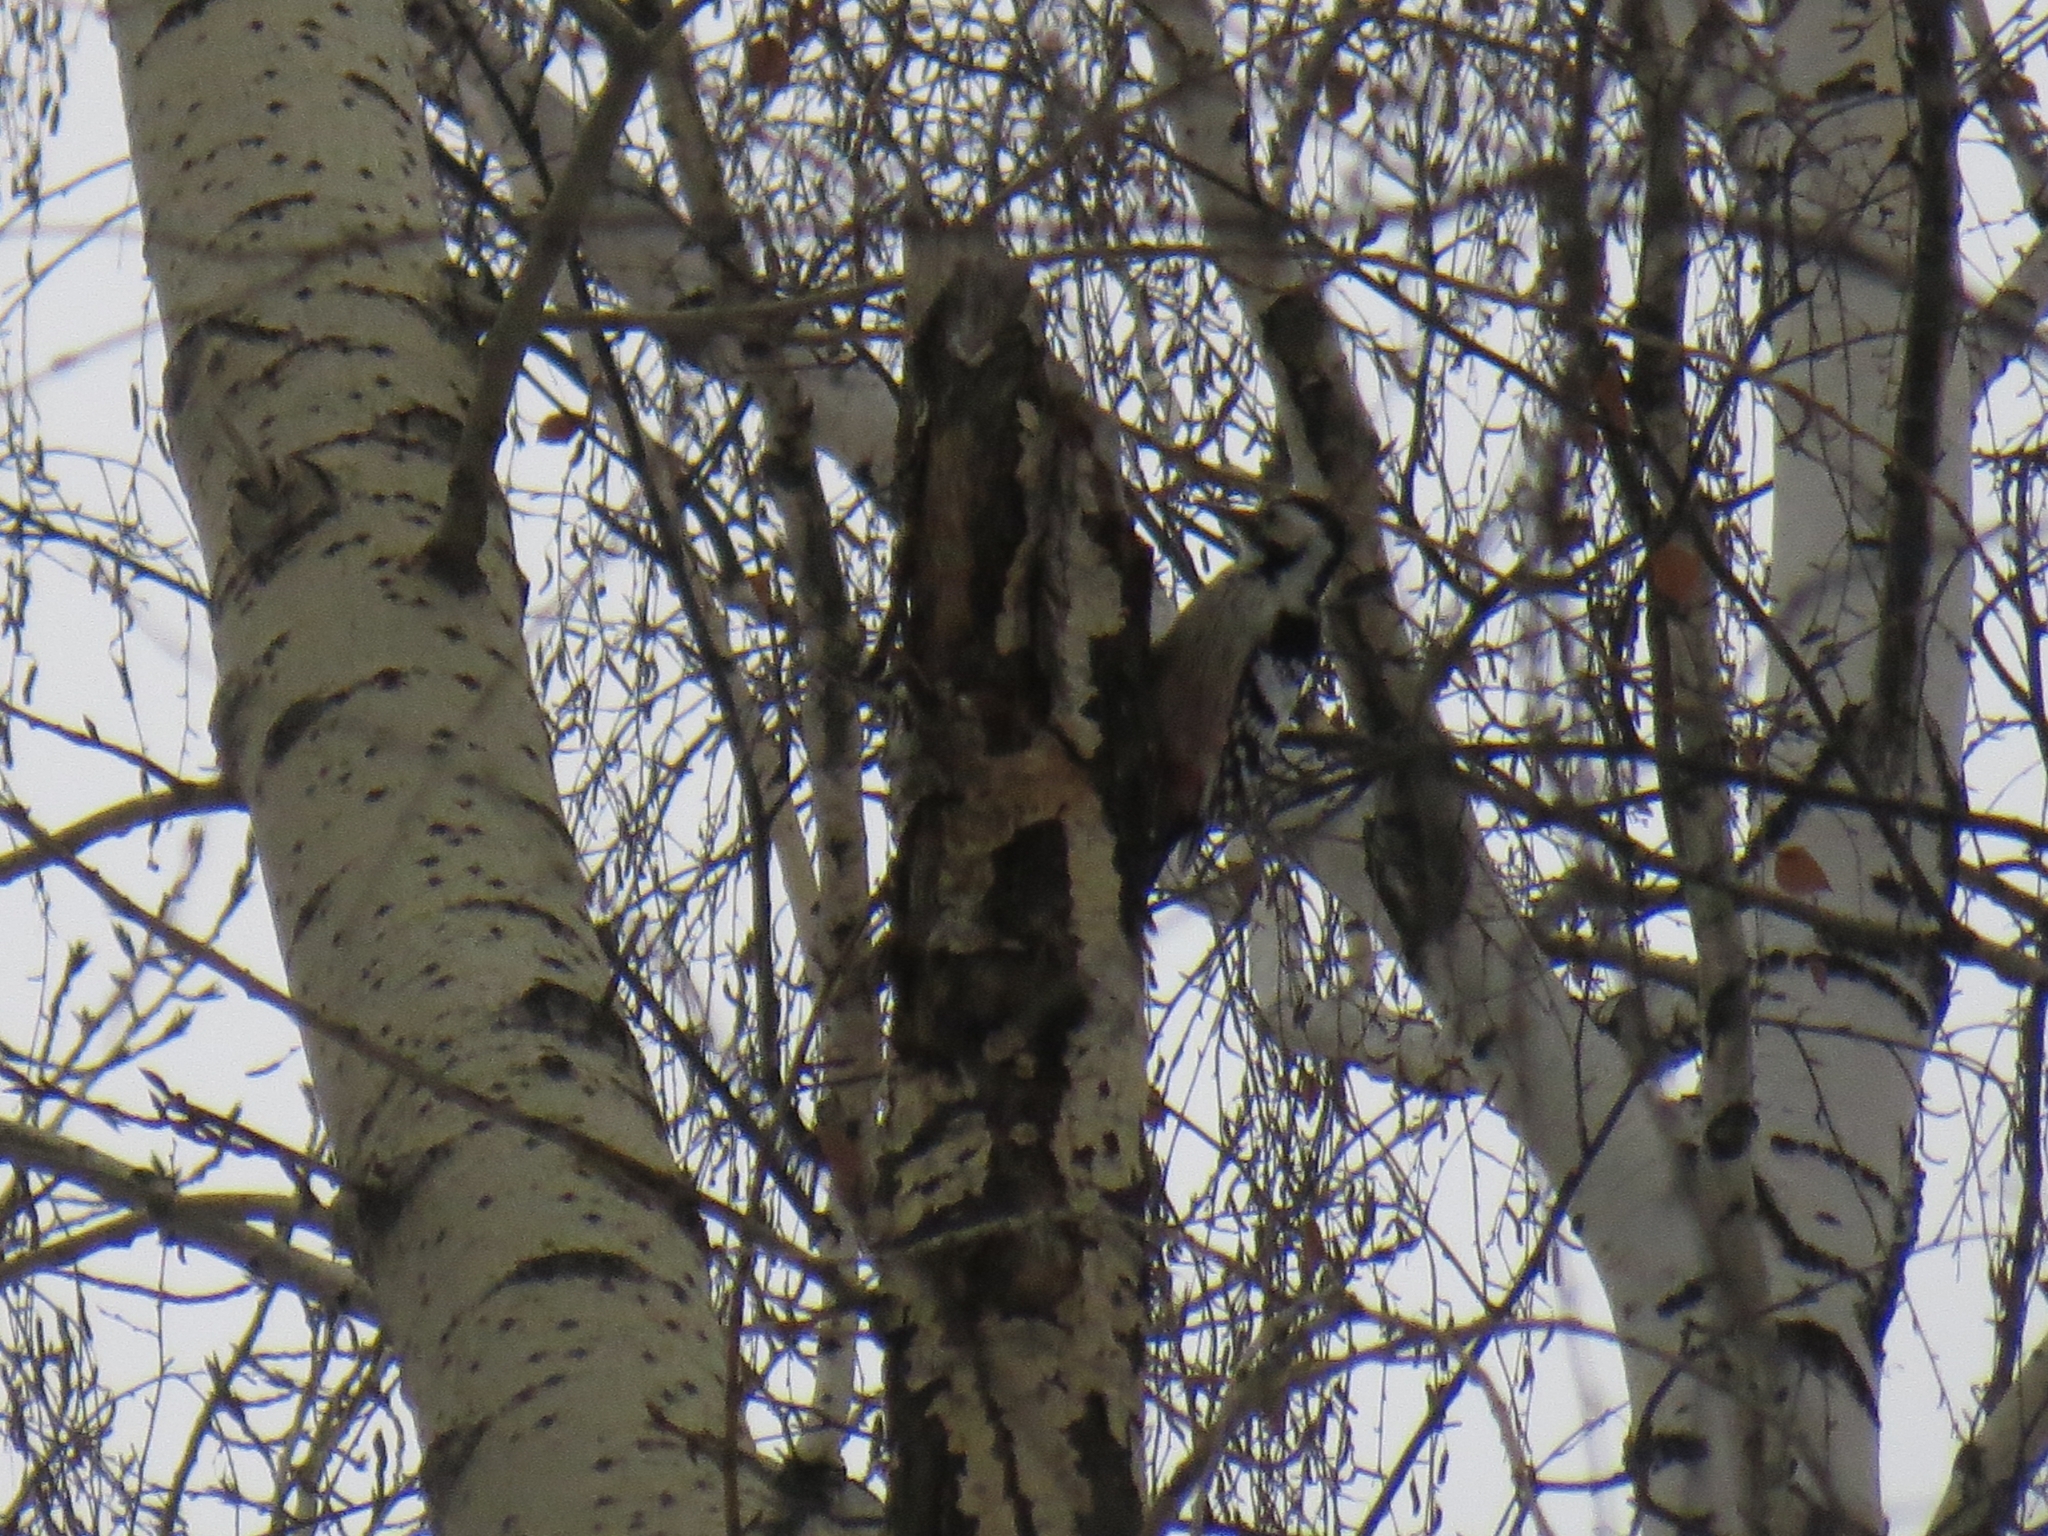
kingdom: Animalia
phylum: Chordata
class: Aves
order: Piciformes
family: Picidae
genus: Dendrocopos
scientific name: Dendrocopos leucotos
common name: White-backed woodpecker
